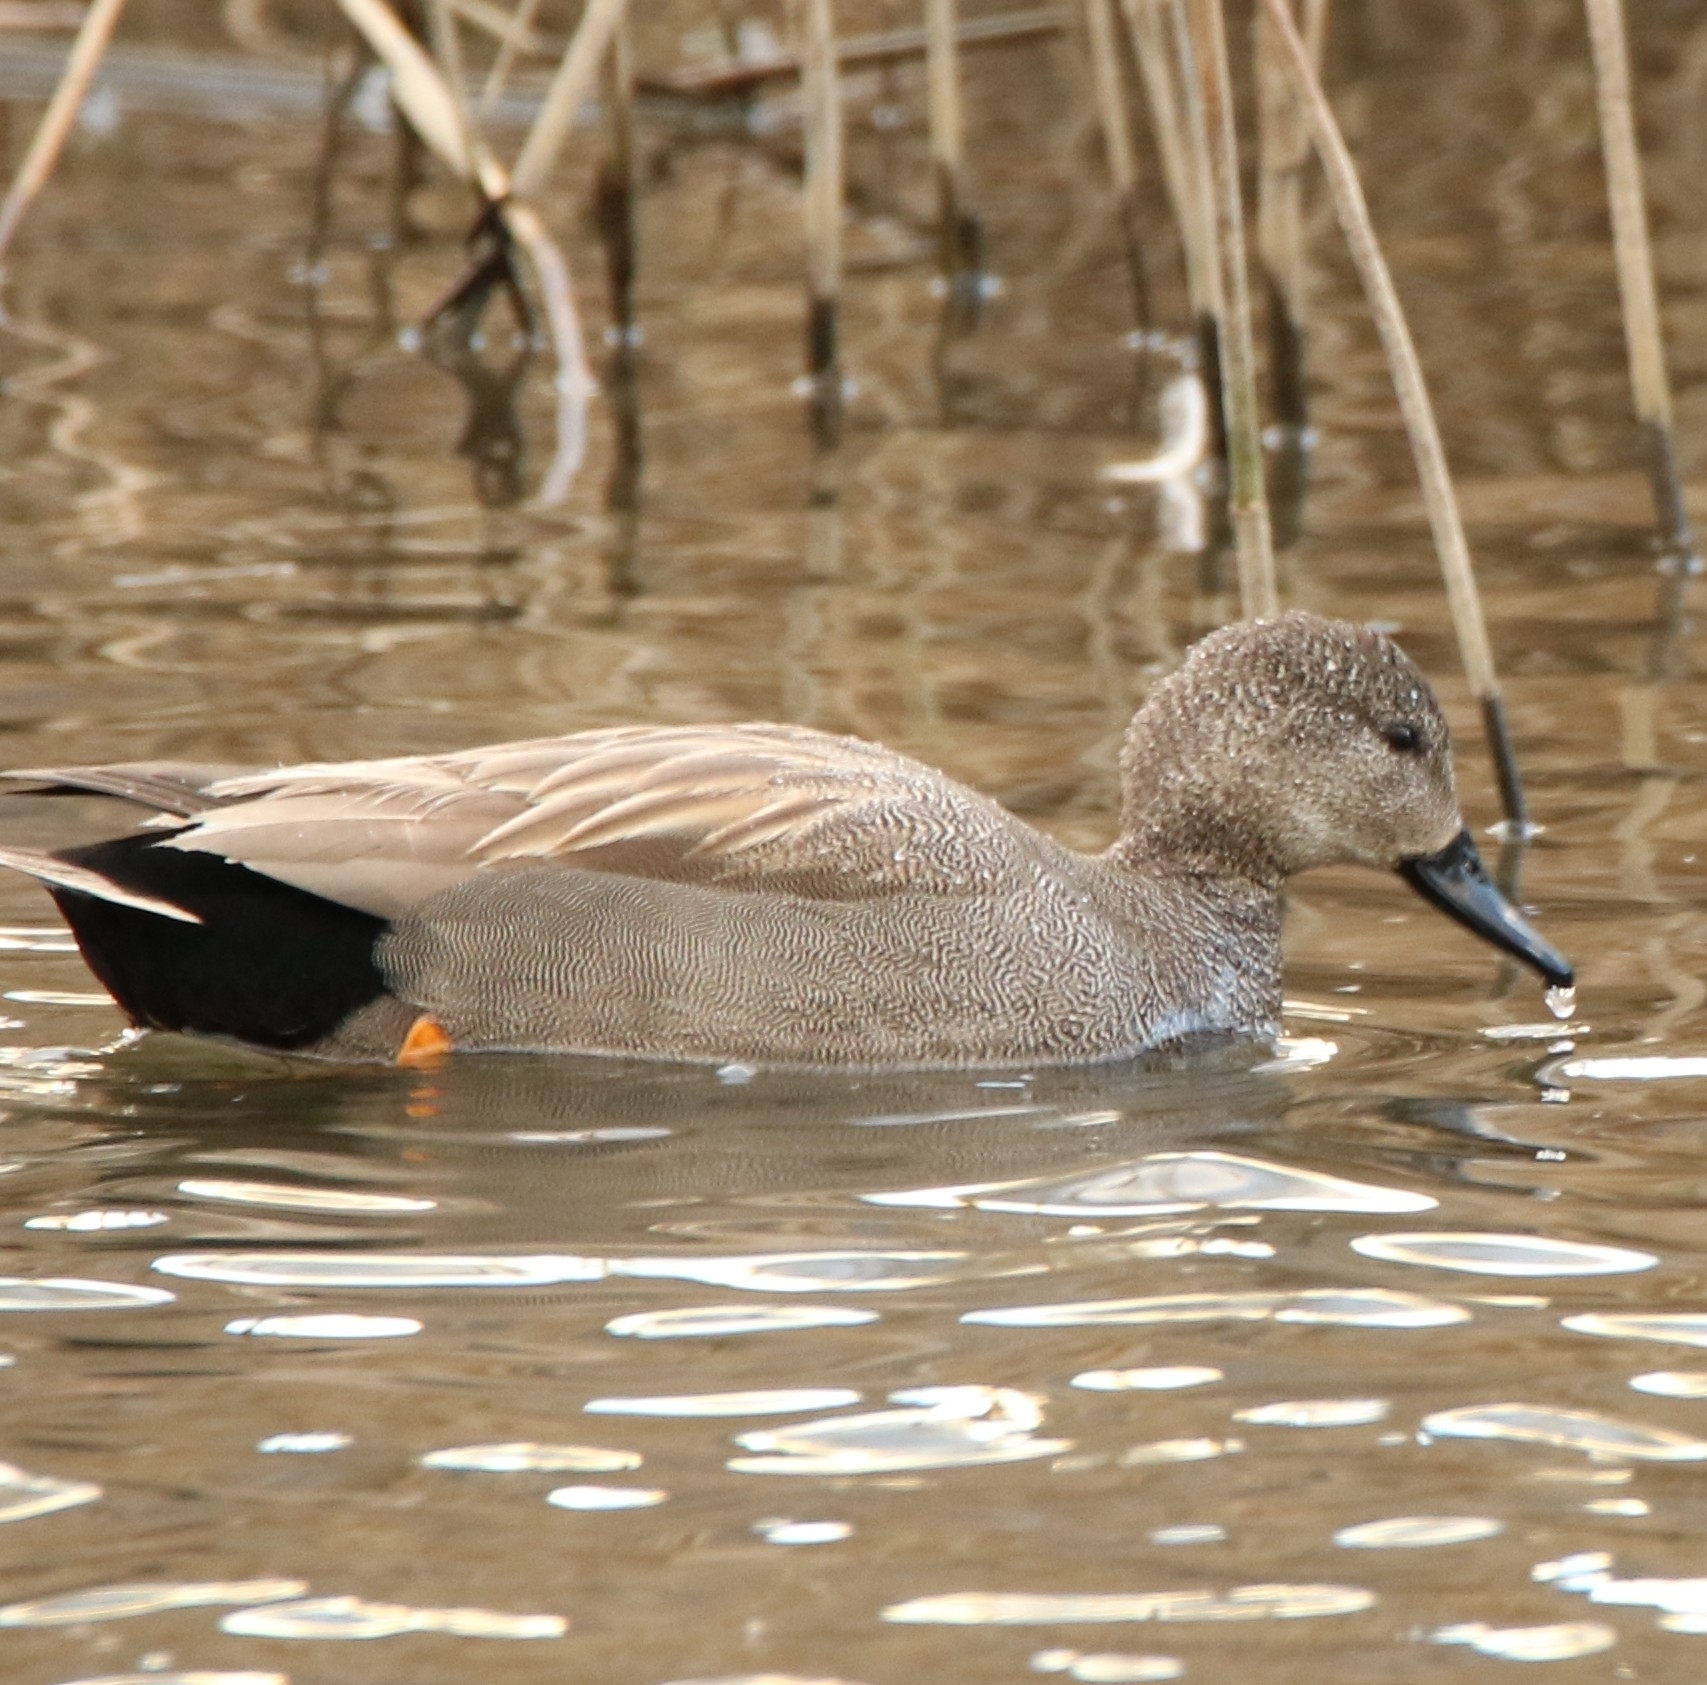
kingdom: Animalia
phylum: Chordata
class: Aves
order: Anseriformes
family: Anatidae
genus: Mareca
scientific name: Mareca strepera
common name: Gadwall
